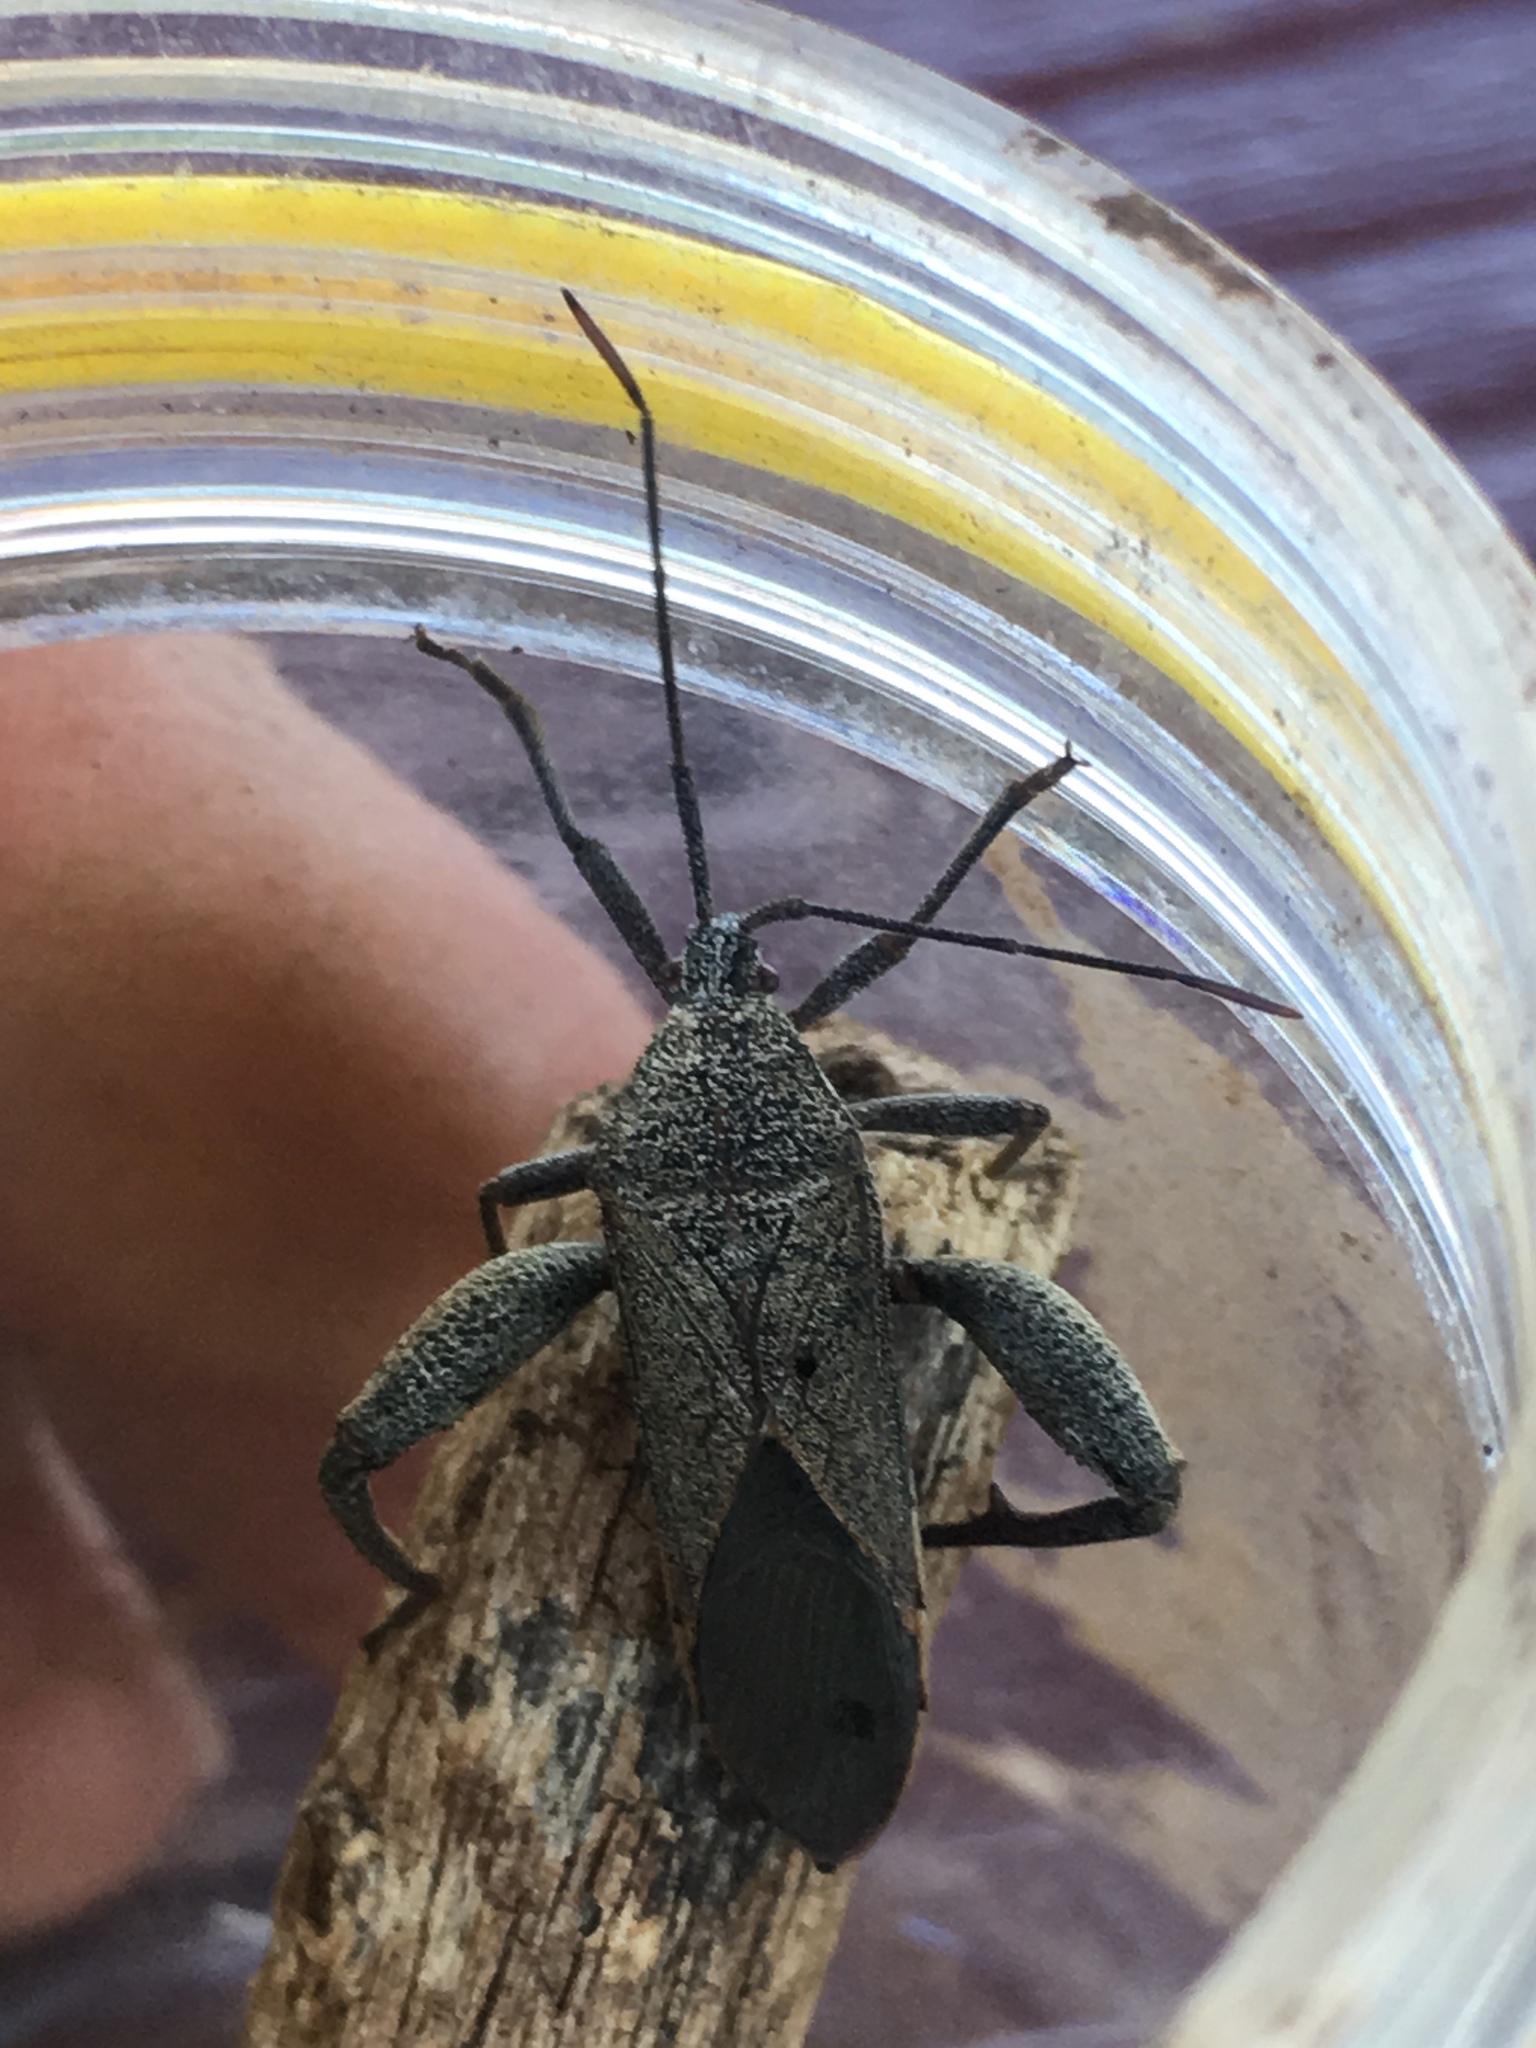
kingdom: Animalia
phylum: Arthropoda
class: Insecta
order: Hemiptera
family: Coreidae
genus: Physomerus
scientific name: Physomerus grossipes
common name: Squash bug
